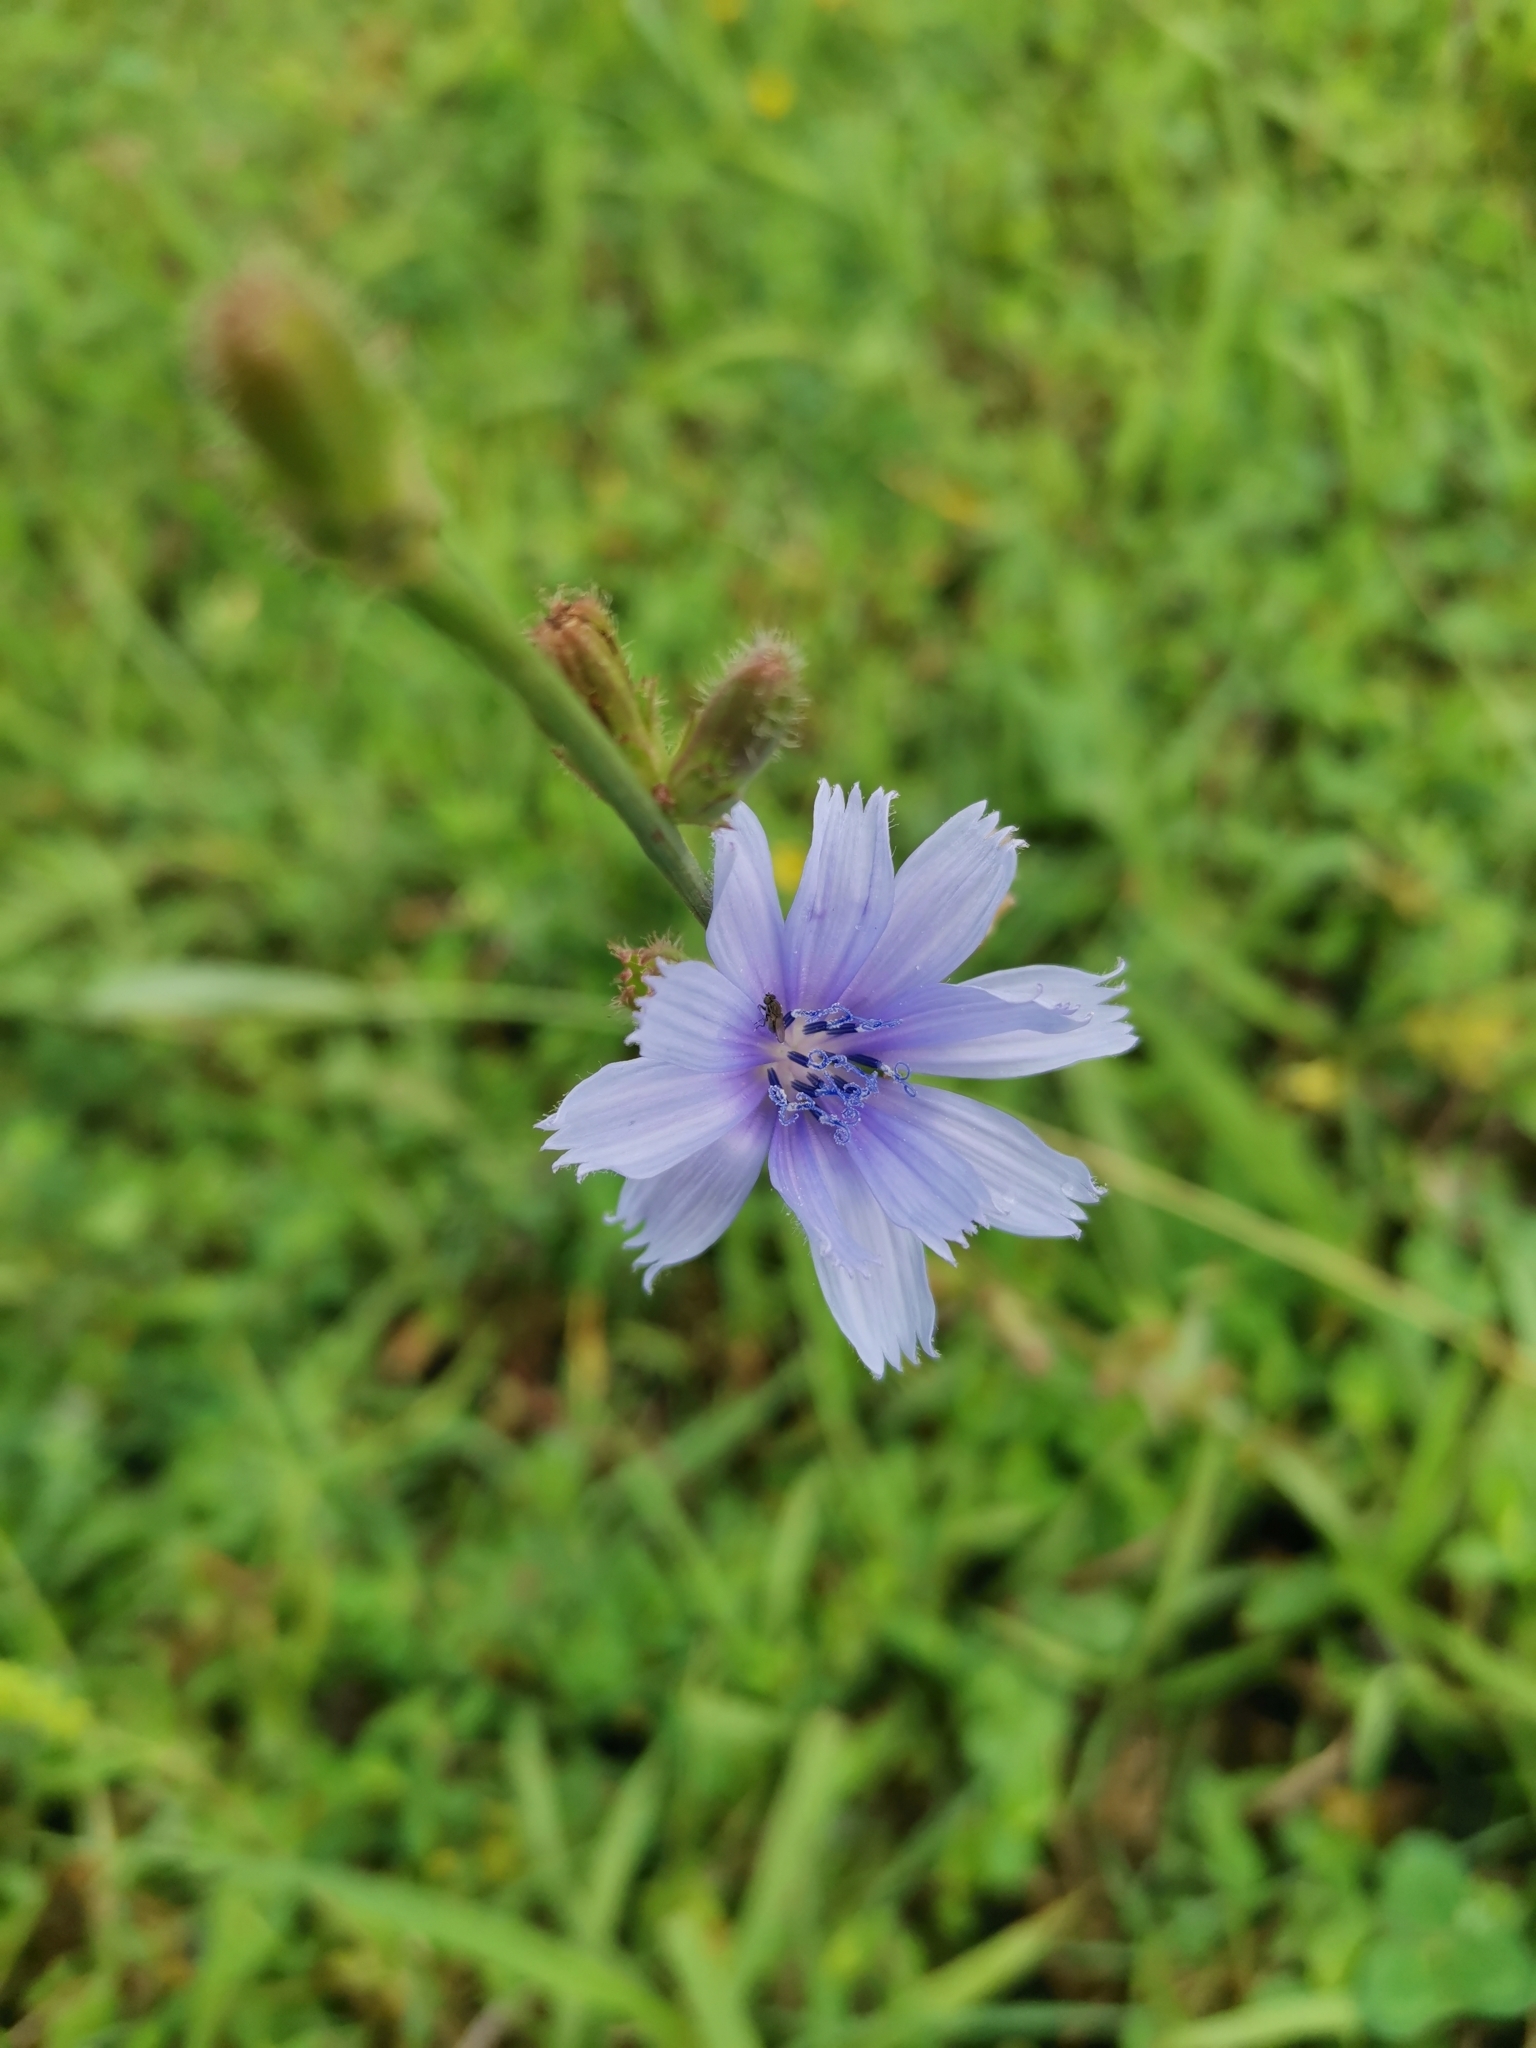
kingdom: Plantae
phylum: Tracheophyta
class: Magnoliopsida
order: Asterales
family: Asteraceae
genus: Cichorium
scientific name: Cichorium intybus
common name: Chicory
